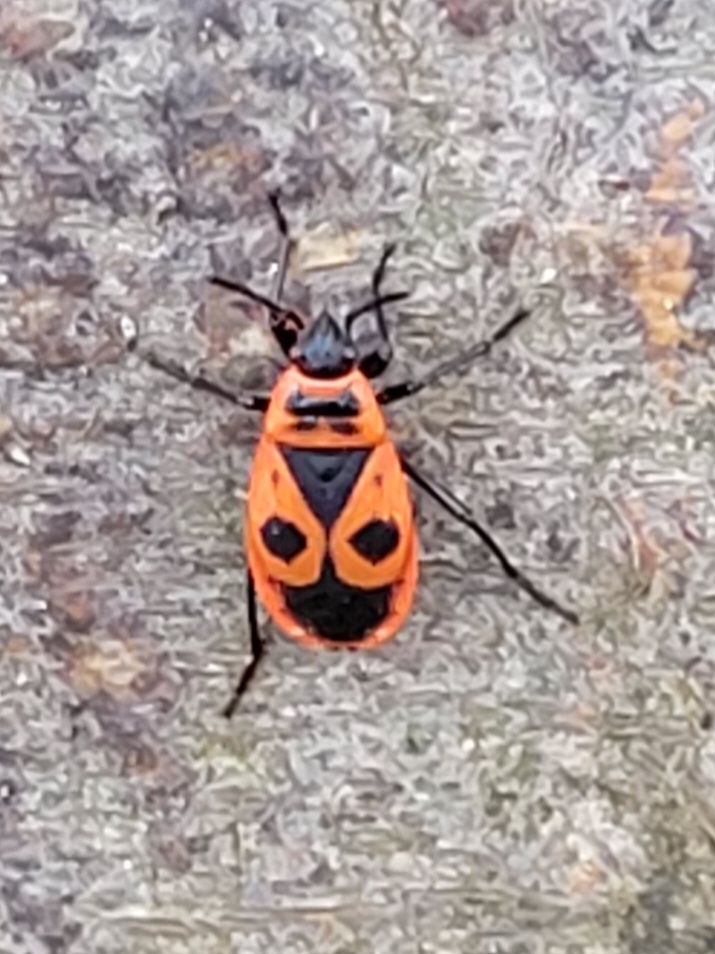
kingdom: Animalia
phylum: Arthropoda
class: Insecta
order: Hemiptera
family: Pyrrhocoridae
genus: Pyrrhocoris
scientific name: Pyrrhocoris apterus
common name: Firebug
